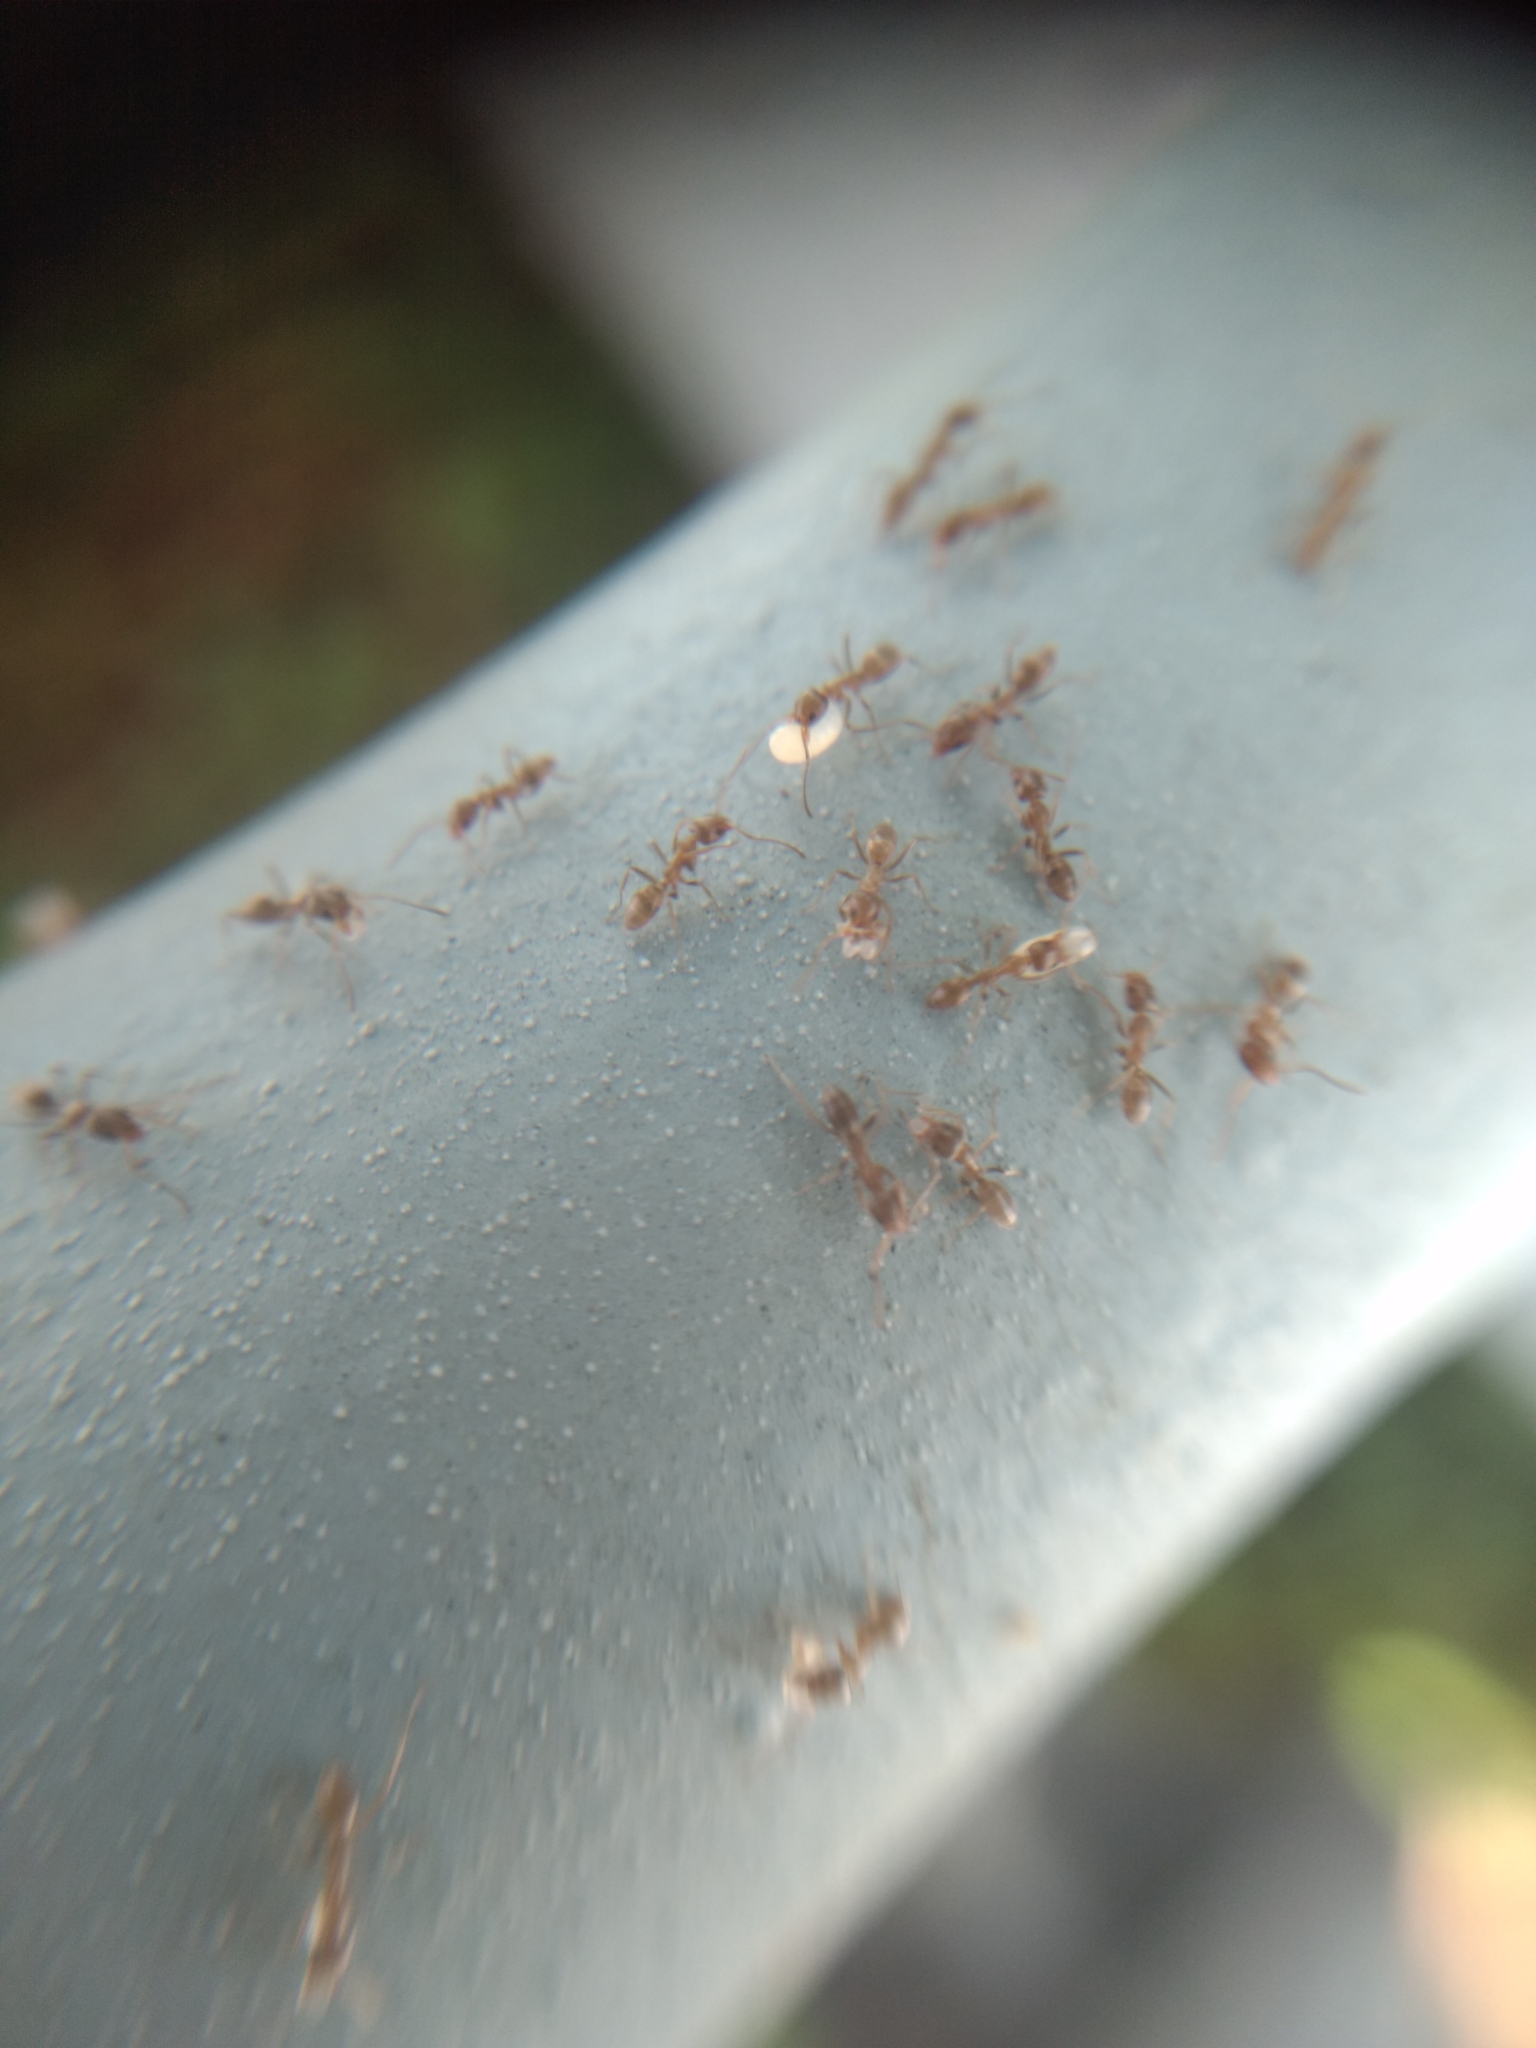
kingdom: Animalia
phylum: Arthropoda
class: Insecta
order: Hymenoptera
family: Formicidae
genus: Linepithema
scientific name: Linepithema humile
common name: Argentine ant
